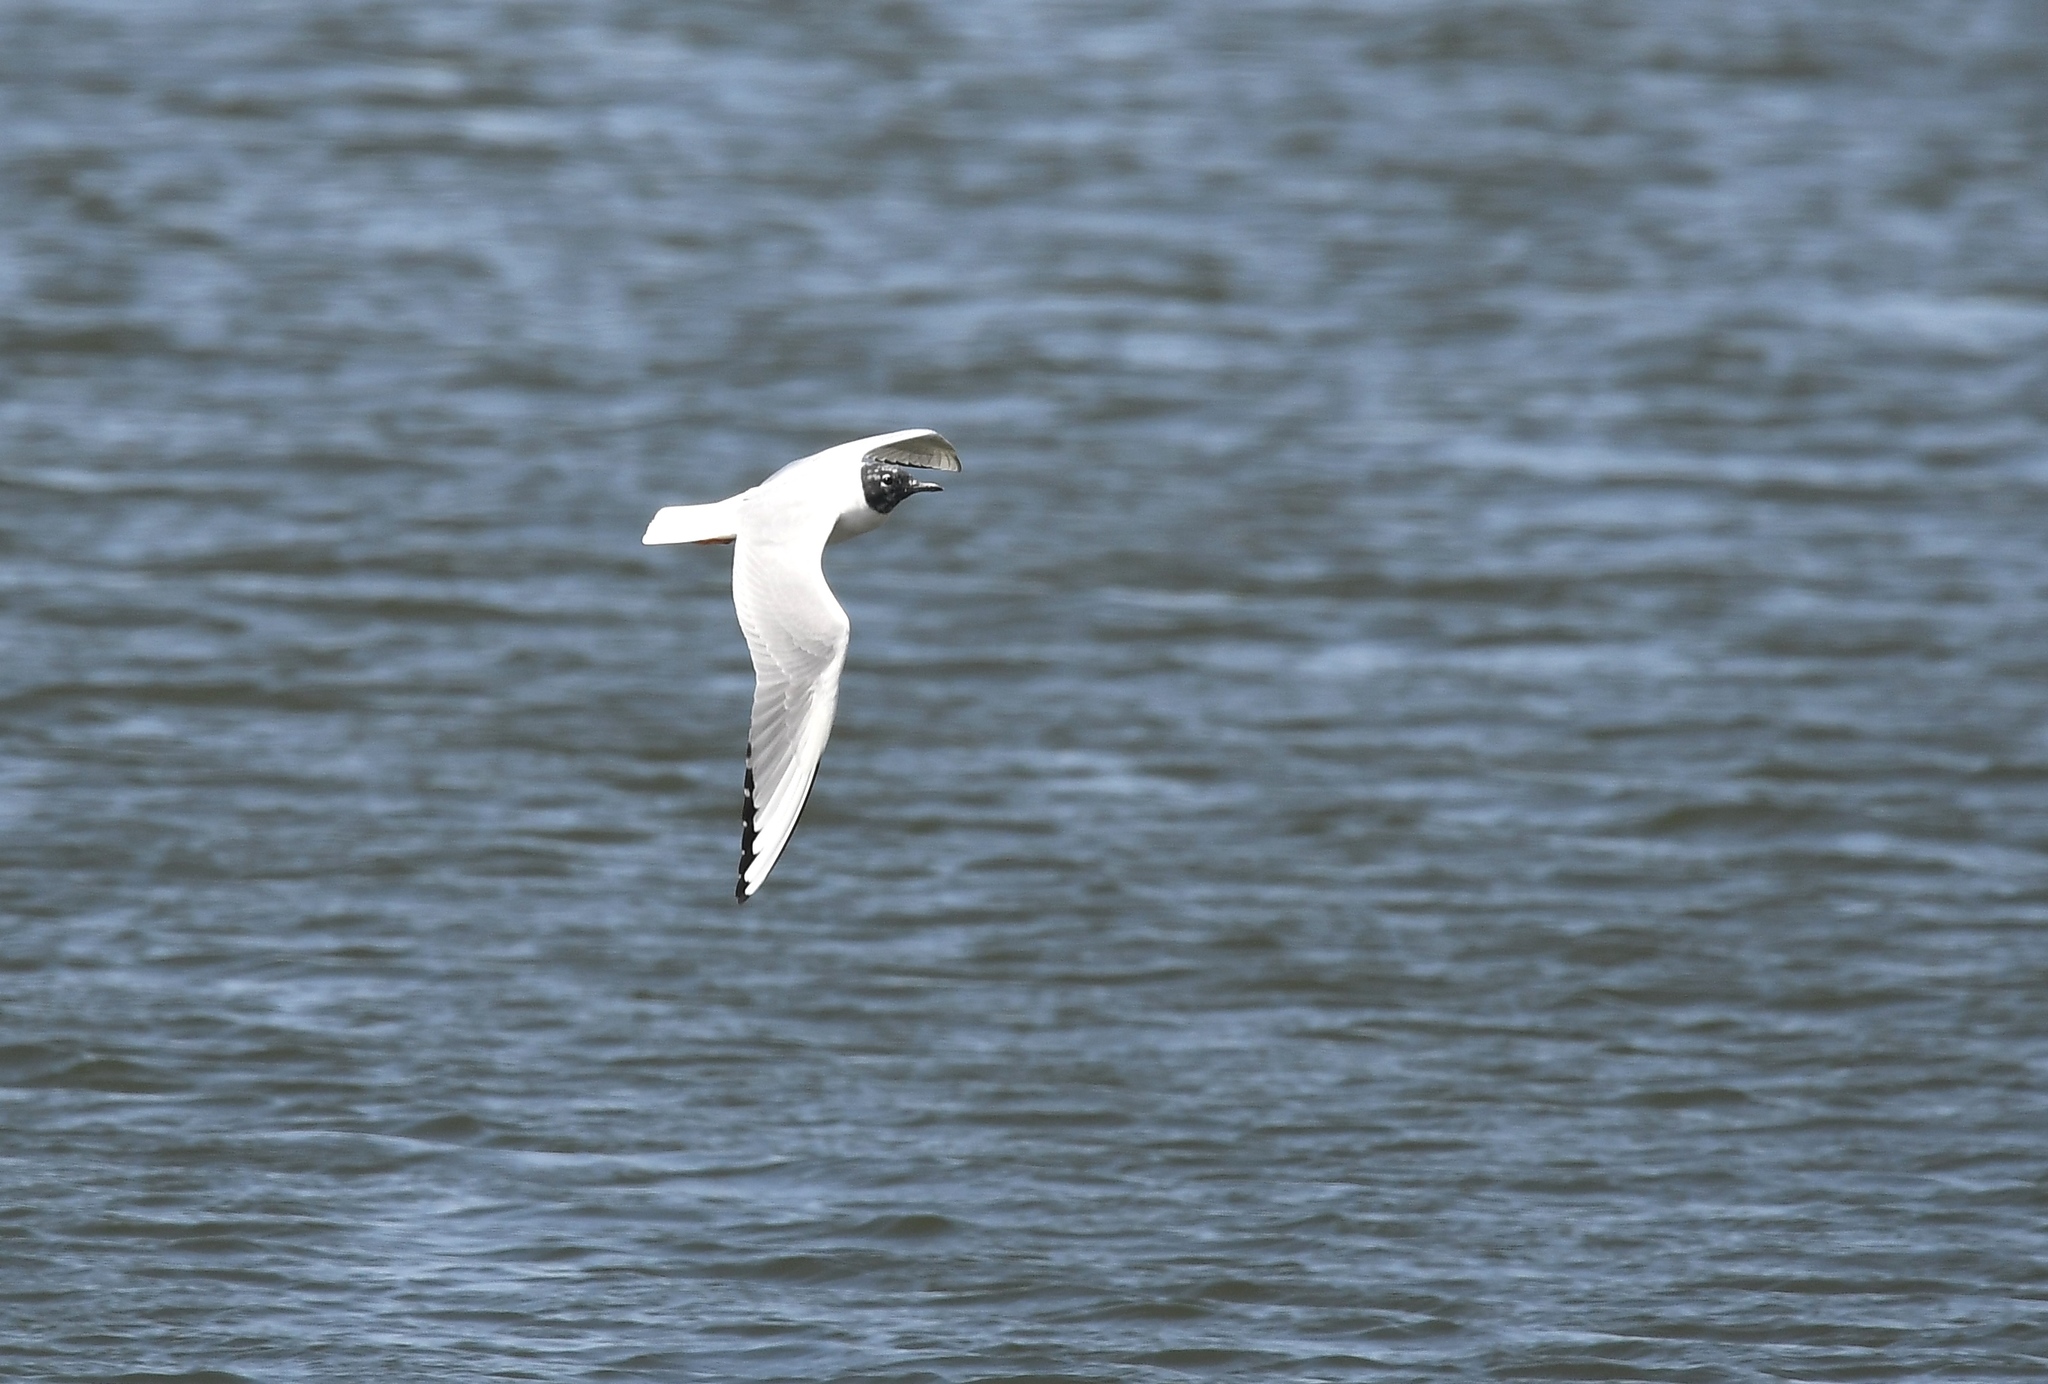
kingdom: Animalia
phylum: Chordata
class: Aves
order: Charadriiformes
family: Laridae
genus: Chroicocephalus
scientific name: Chroicocephalus philadelphia
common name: Bonaparte's gull
